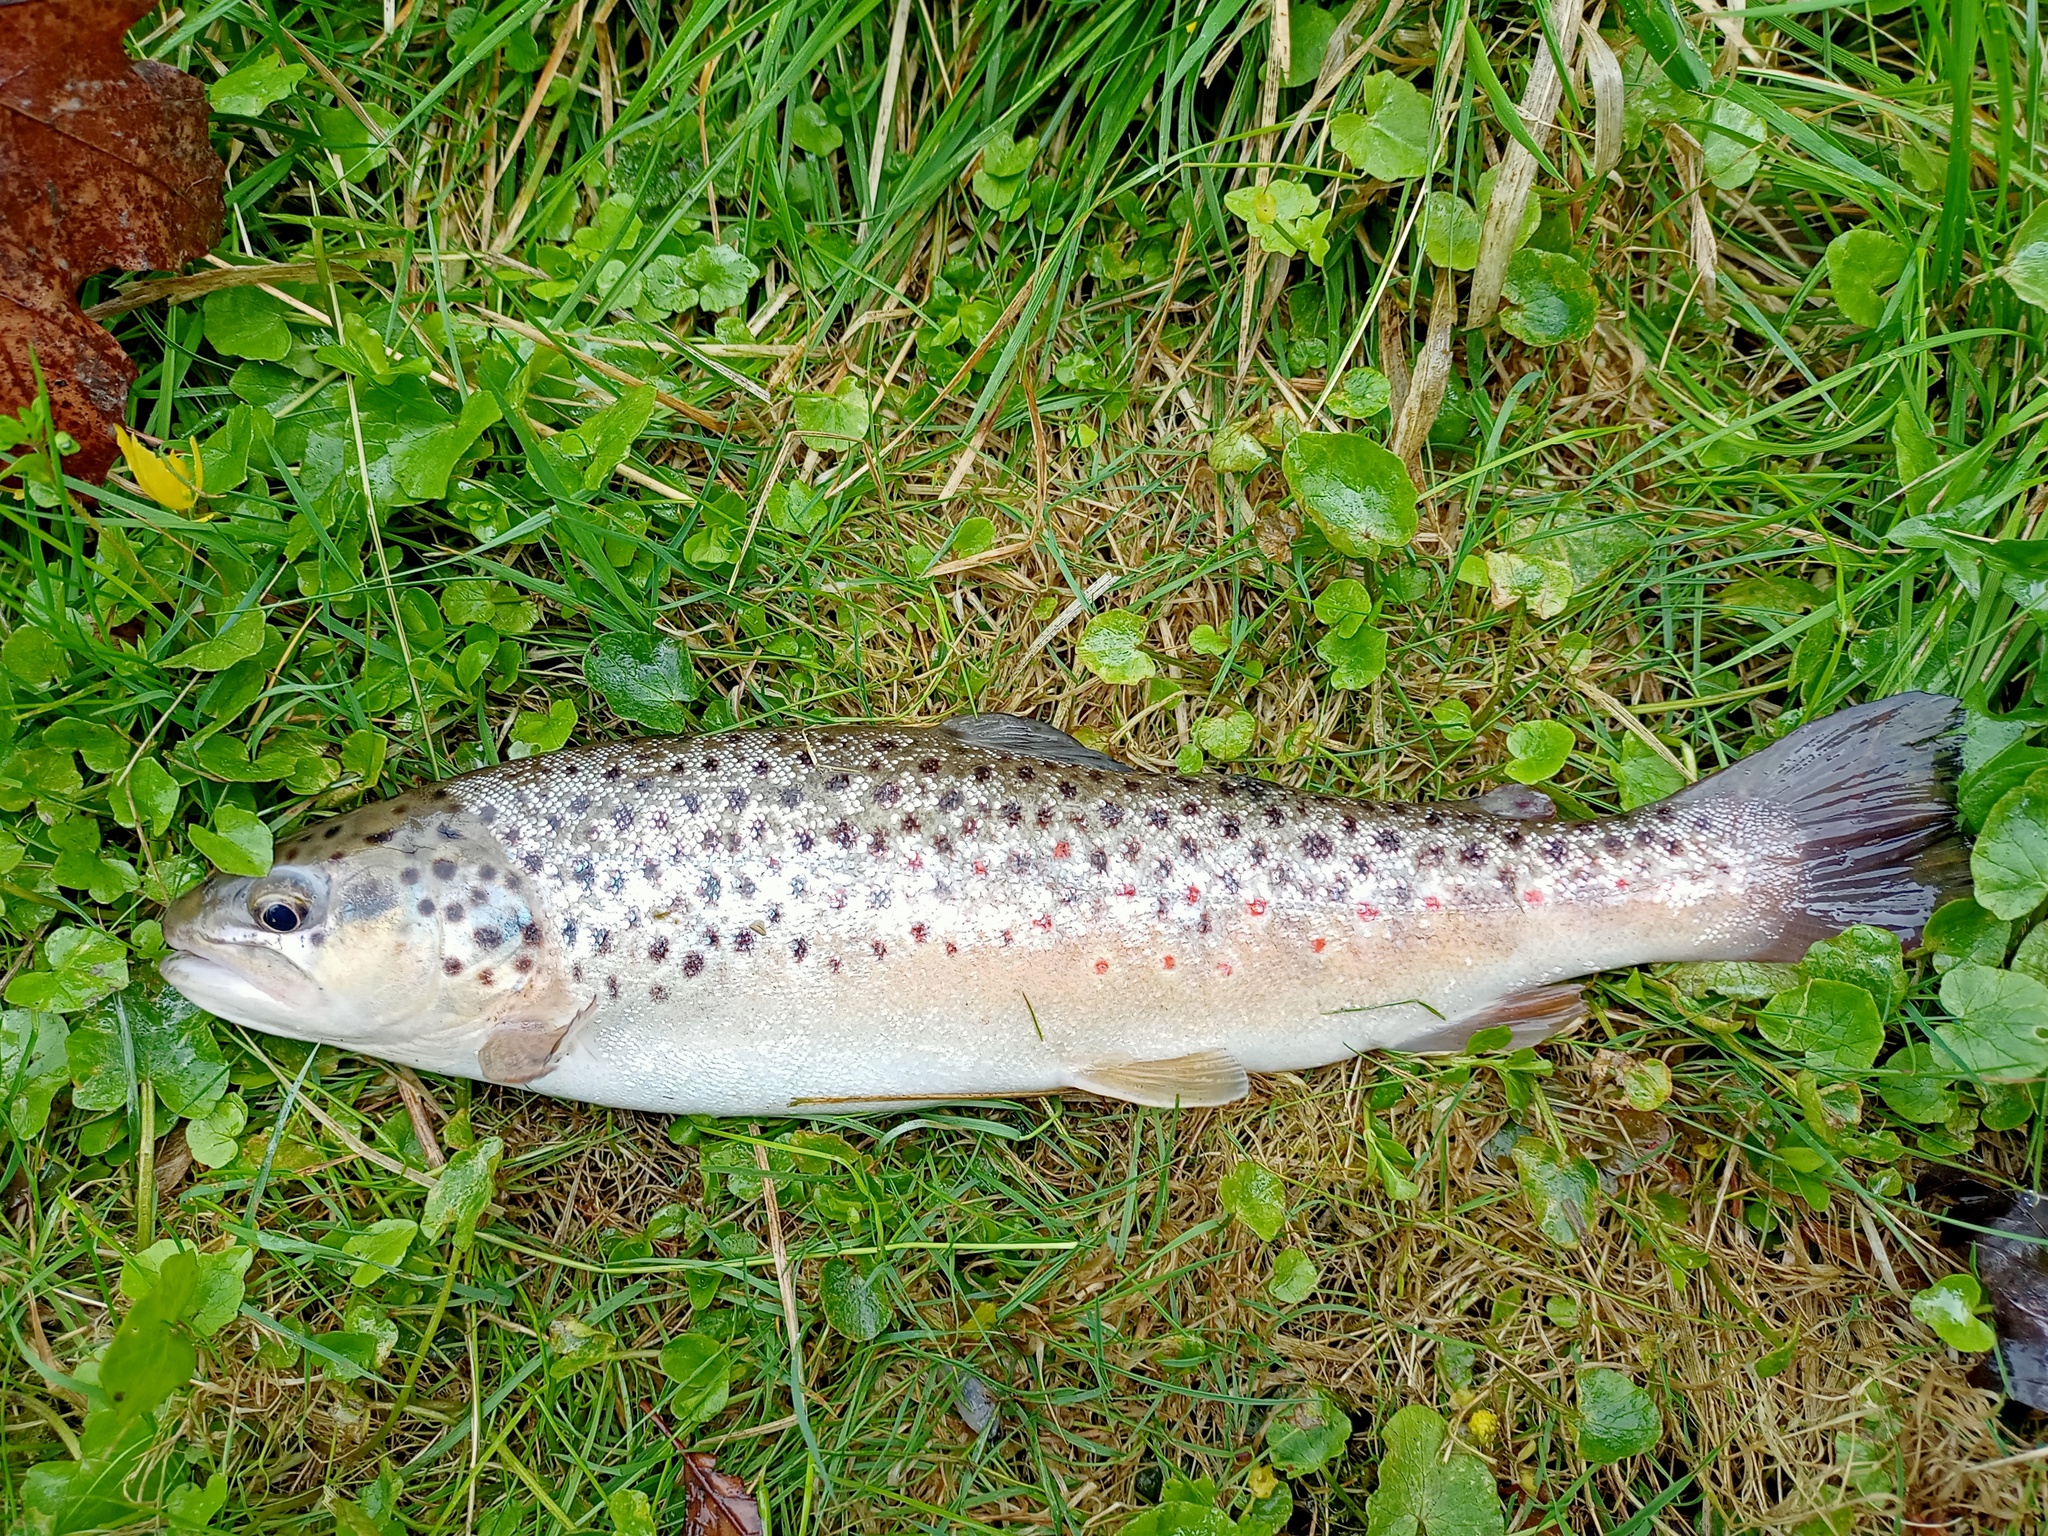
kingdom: Animalia
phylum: Chordata
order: Salmoniformes
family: Salmonidae
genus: Salmo
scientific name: Salmo trutta
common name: Brown trout
